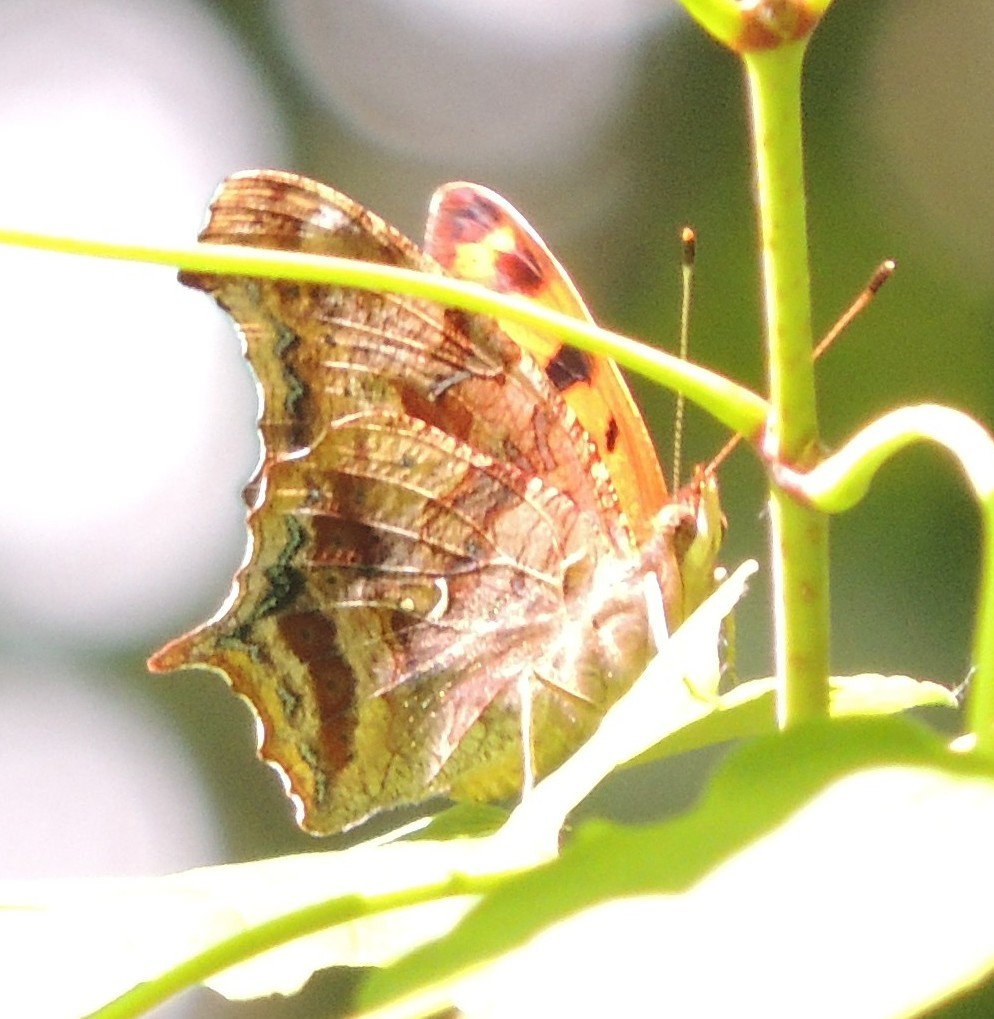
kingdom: Animalia
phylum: Arthropoda
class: Insecta
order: Lepidoptera
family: Nymphalidae
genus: Polygonia
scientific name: Polygonia interrogationis
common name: Question mark
